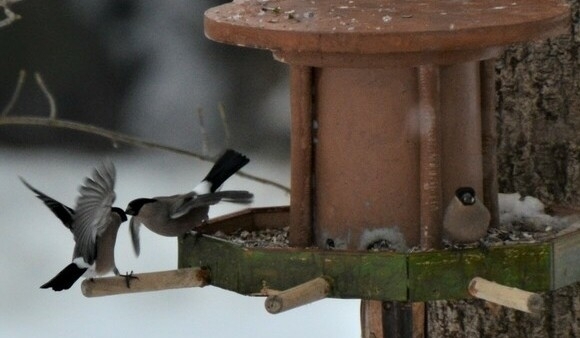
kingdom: Animalia
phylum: Chordata
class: Aves
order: Passeriformes
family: Fringillidae
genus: Pyrrhula
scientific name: Pyrrhula pyrrhula
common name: Eurasian bullfinch
